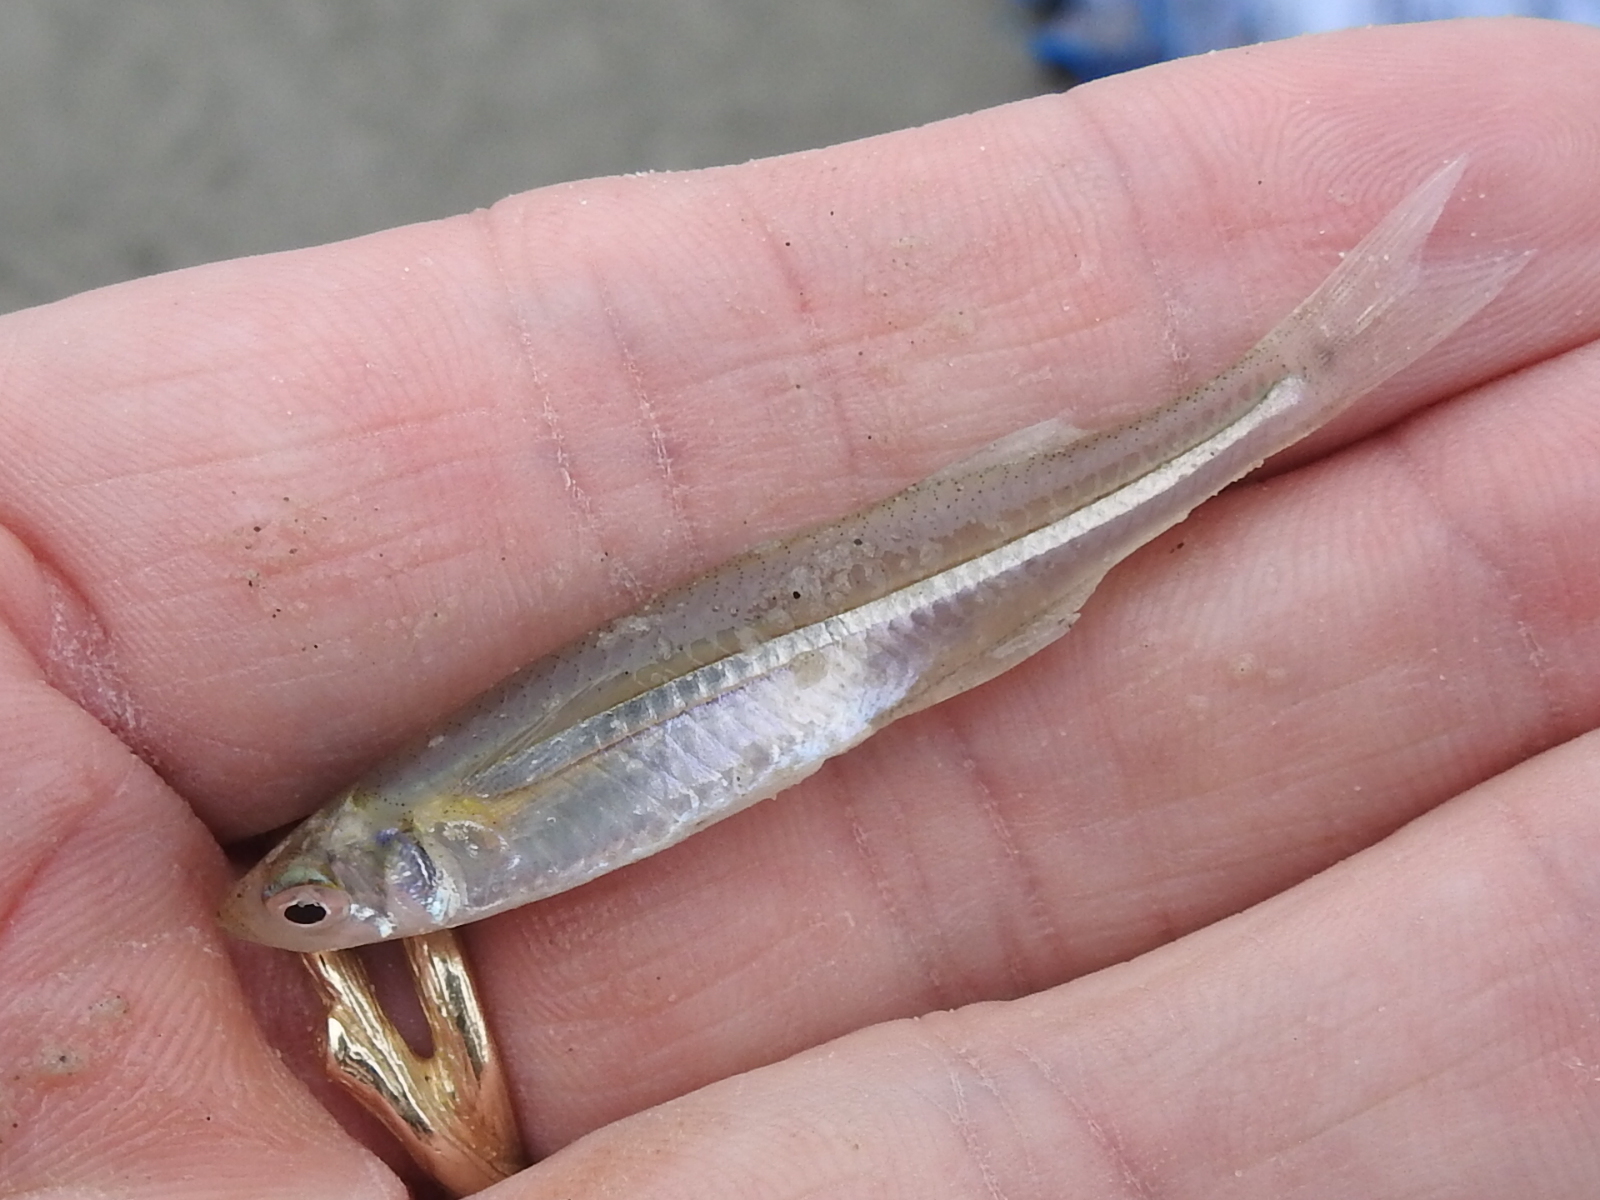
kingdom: Animalia
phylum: Chordata
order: Atheriniformes
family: Atherinopsidae
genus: Menidia
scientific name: Menidia beryllina
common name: Inland silverside
